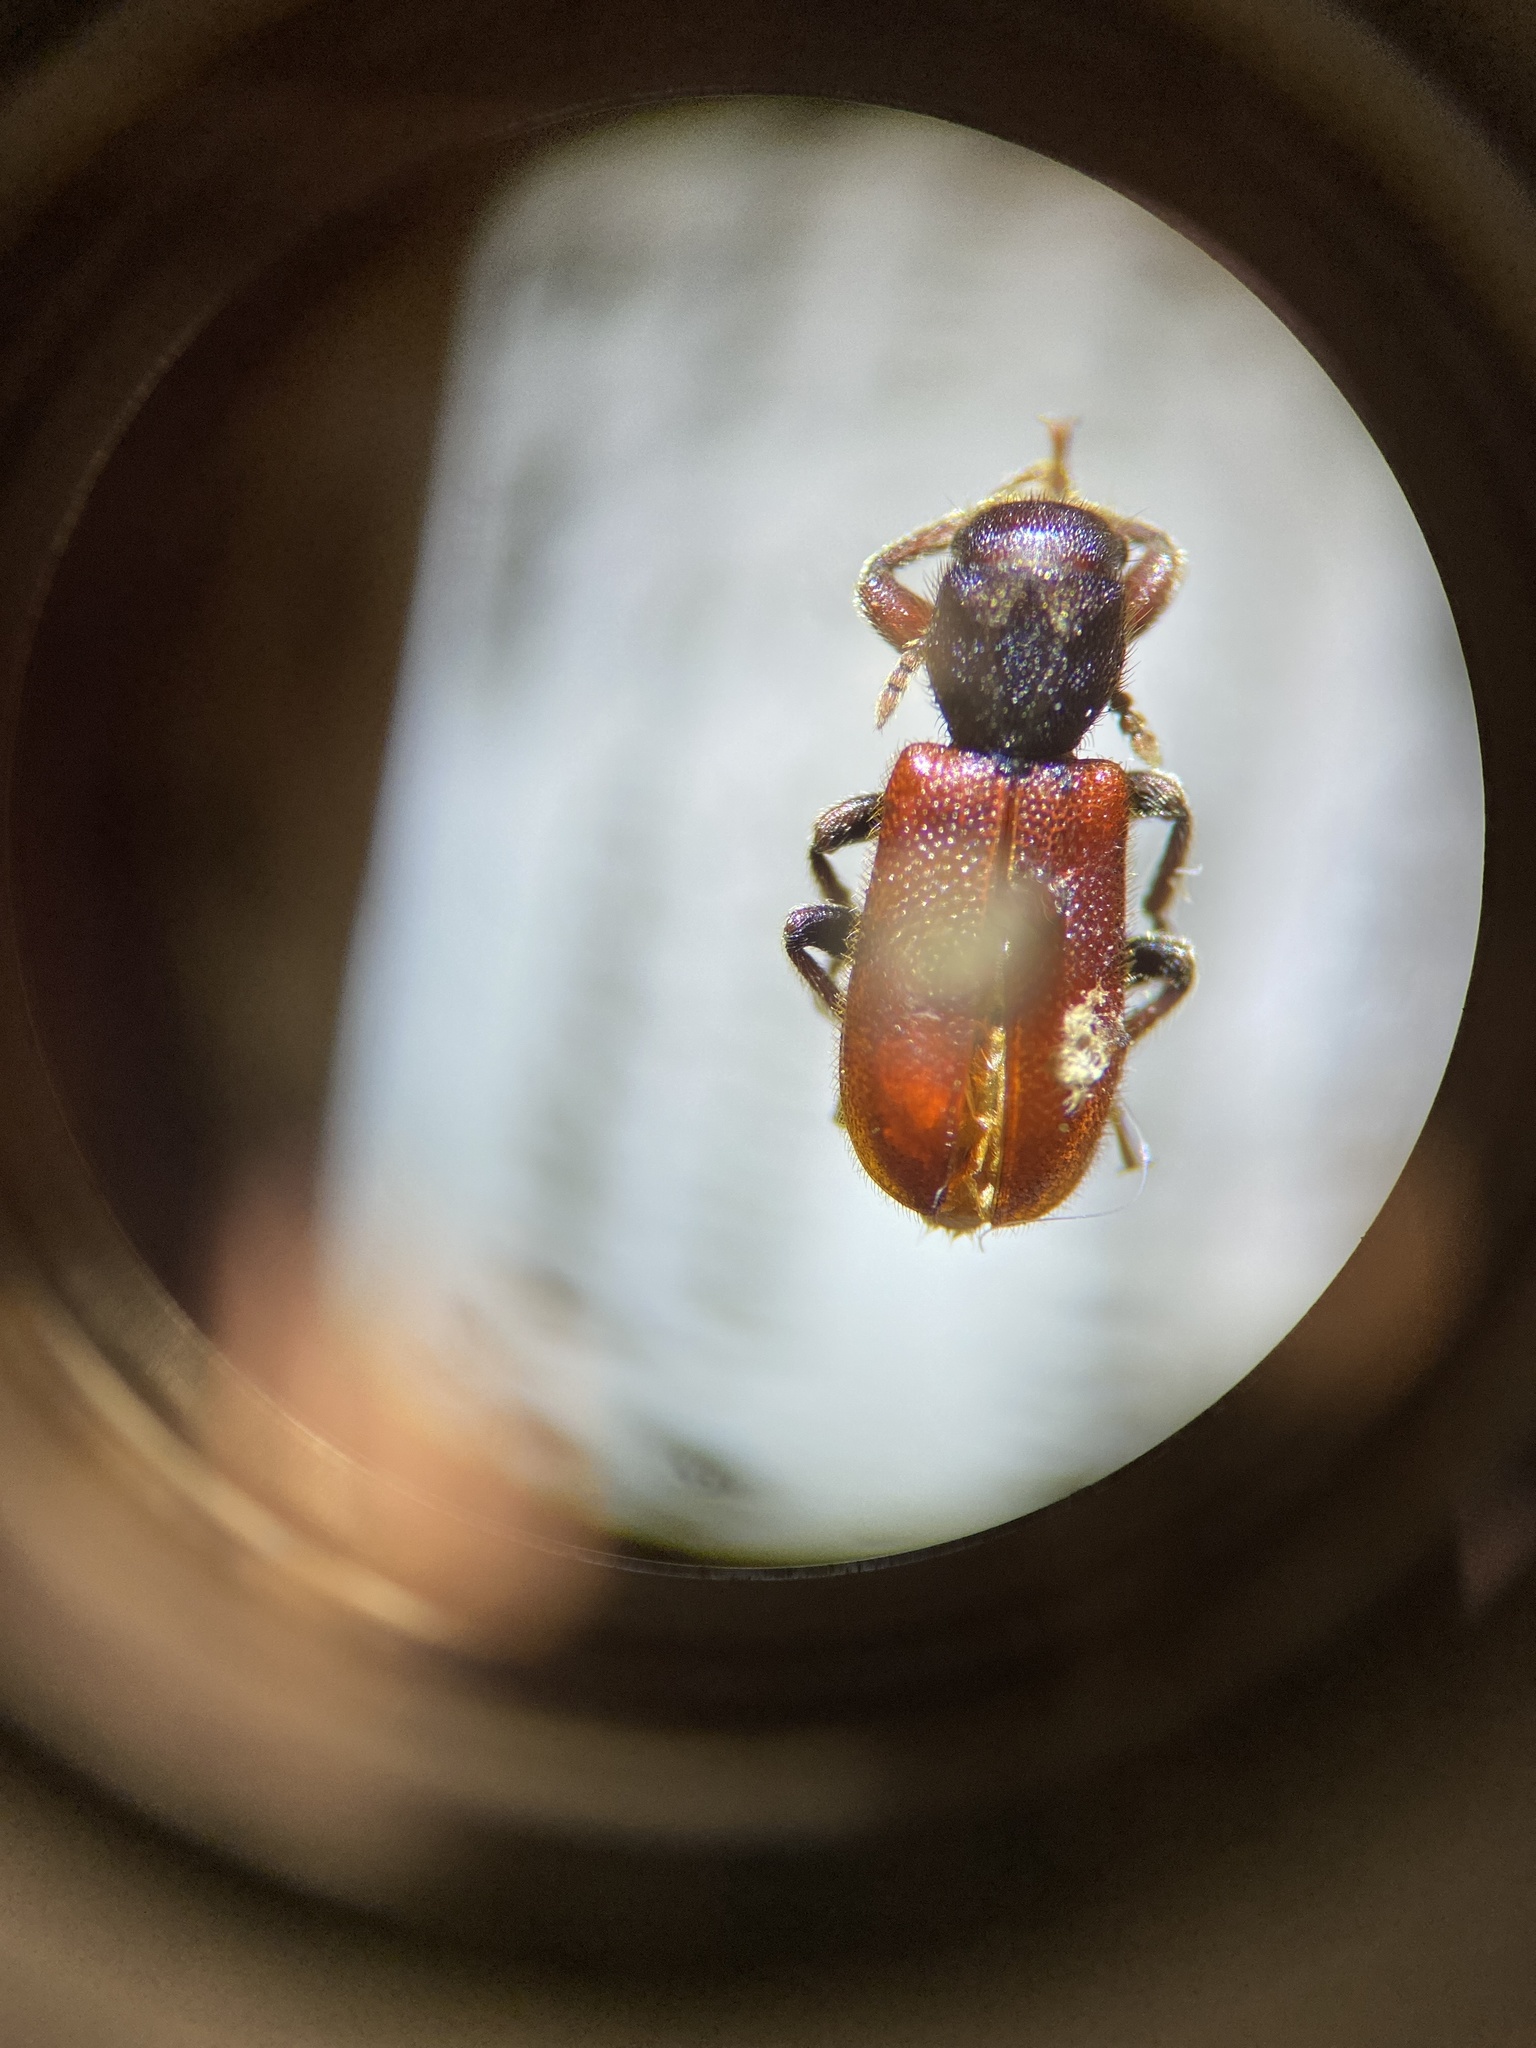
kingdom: Animalia
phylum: Arthropoda
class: Insecta
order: Coleoptera
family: Thanerocleridae
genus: Zenodosus
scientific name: Zenodosus sanguineus
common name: Blood-colored checkered beetle
